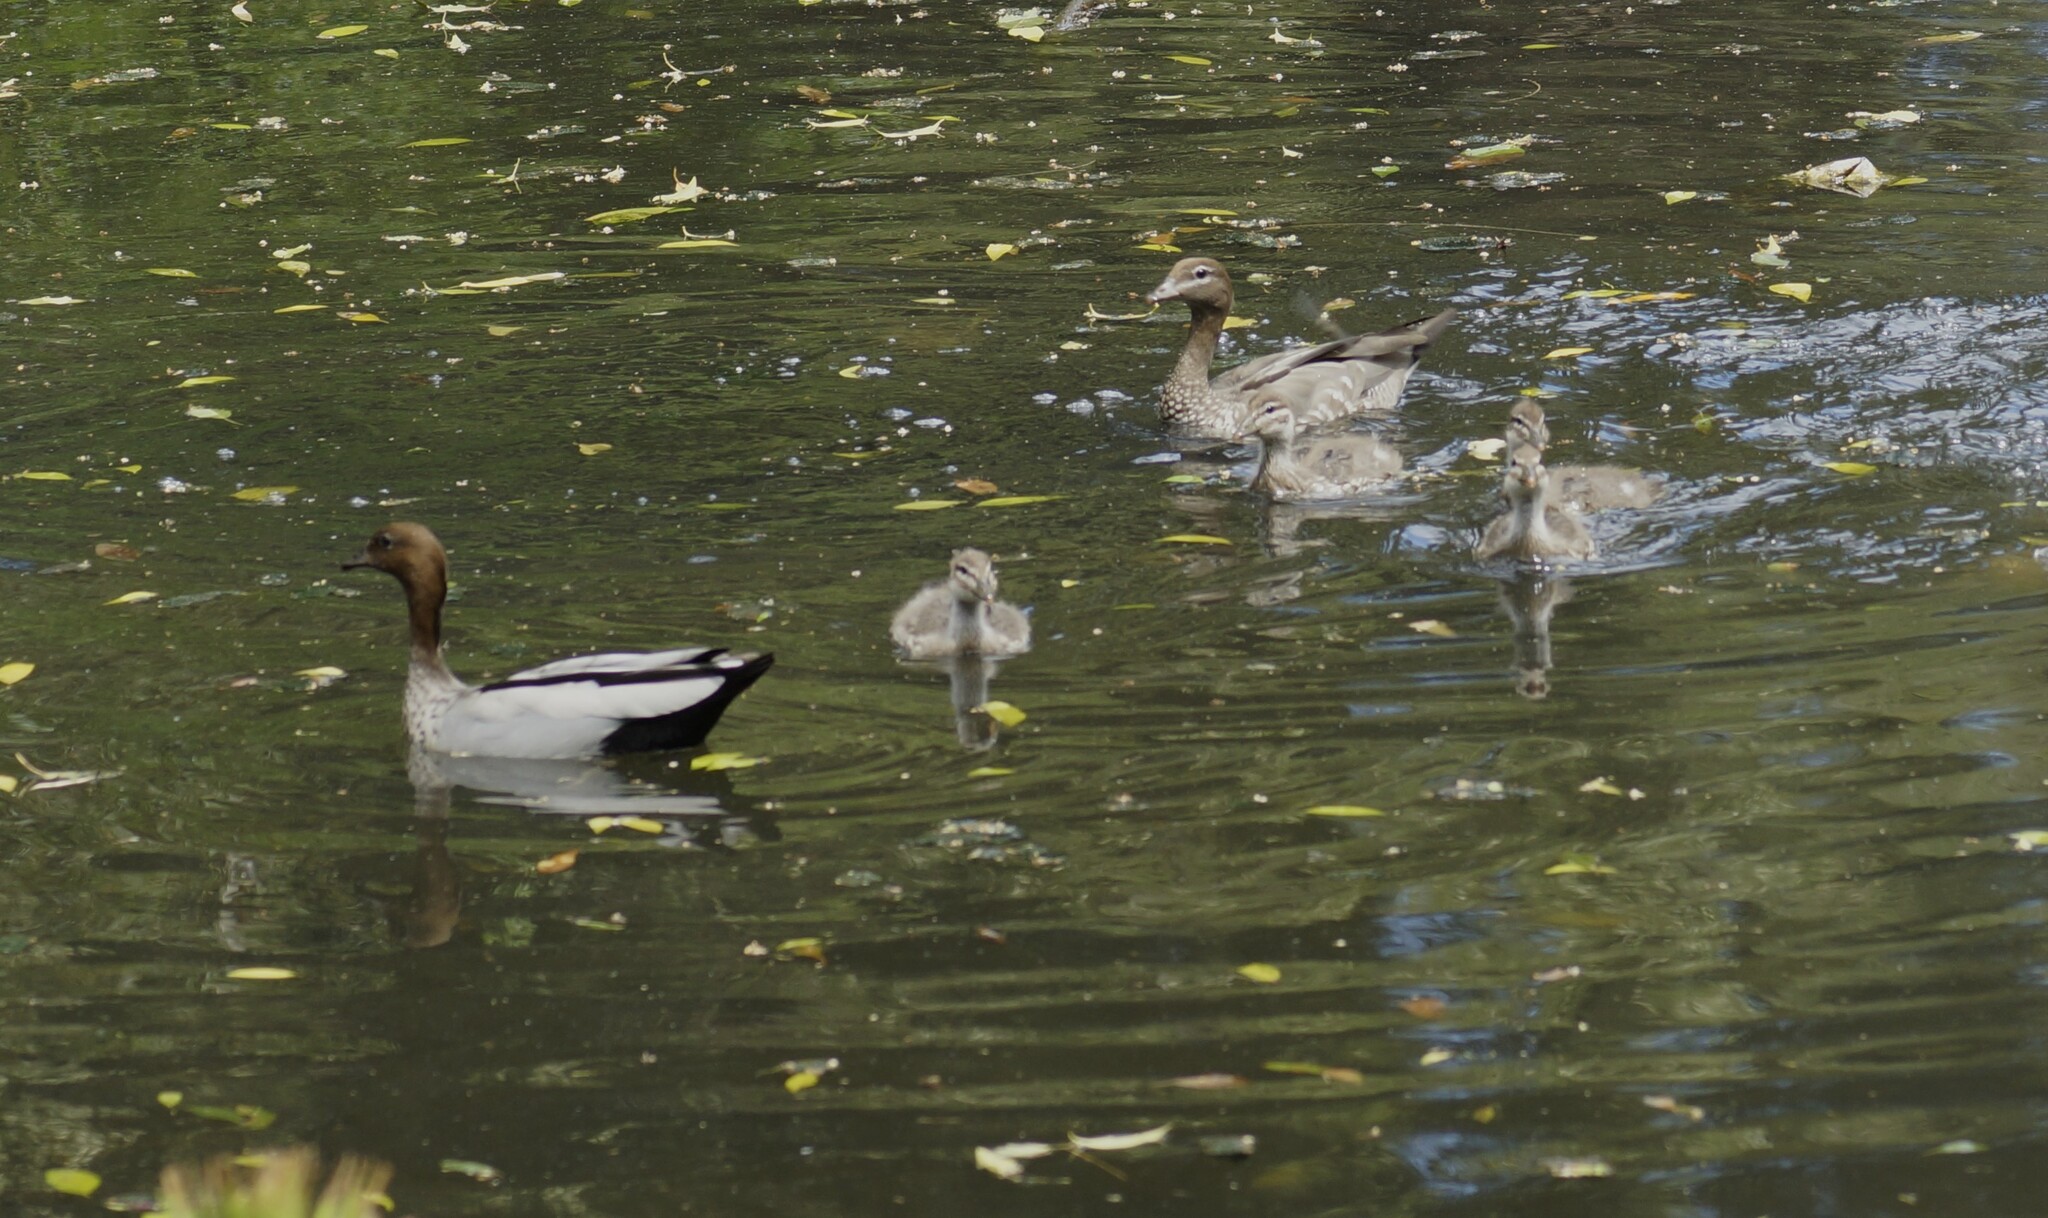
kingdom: Animalia
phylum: Chordata
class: Aves
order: Anseriformes
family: Anatidae
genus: Chenonetta
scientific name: Chenonetta jubata
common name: Maned duck
